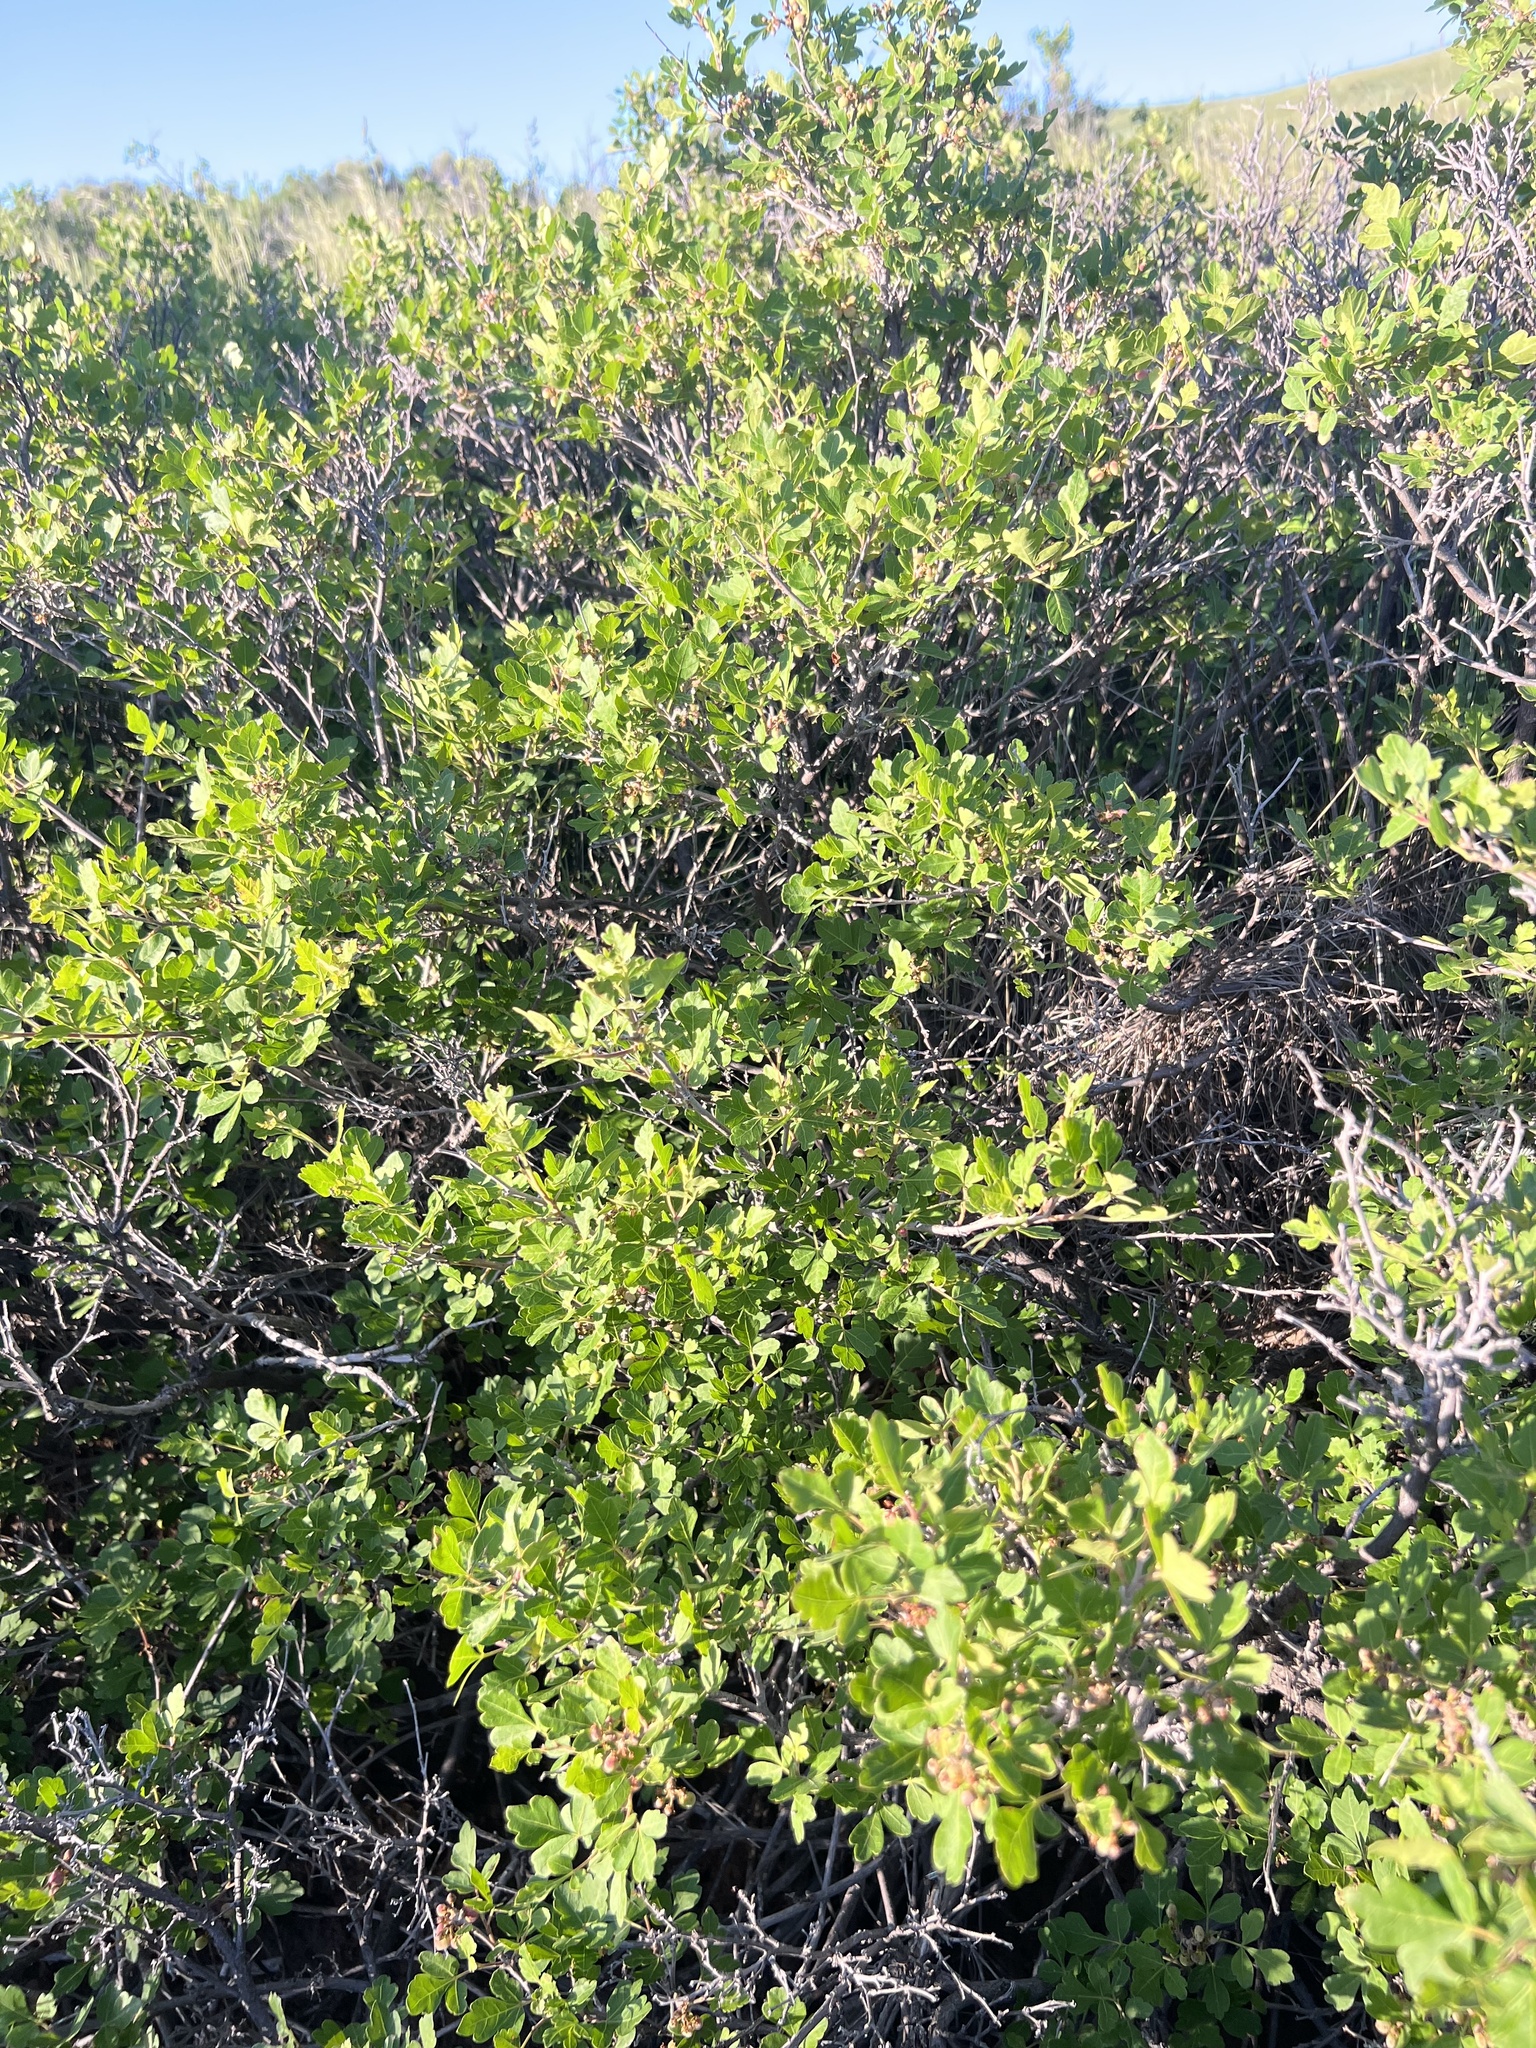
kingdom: Plantae
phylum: Tracheophyta
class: Magnoliopsida
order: Sapindales
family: Anacardiaceae
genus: Rhus
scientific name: Rhus aromatica
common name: Aromatic sumac
